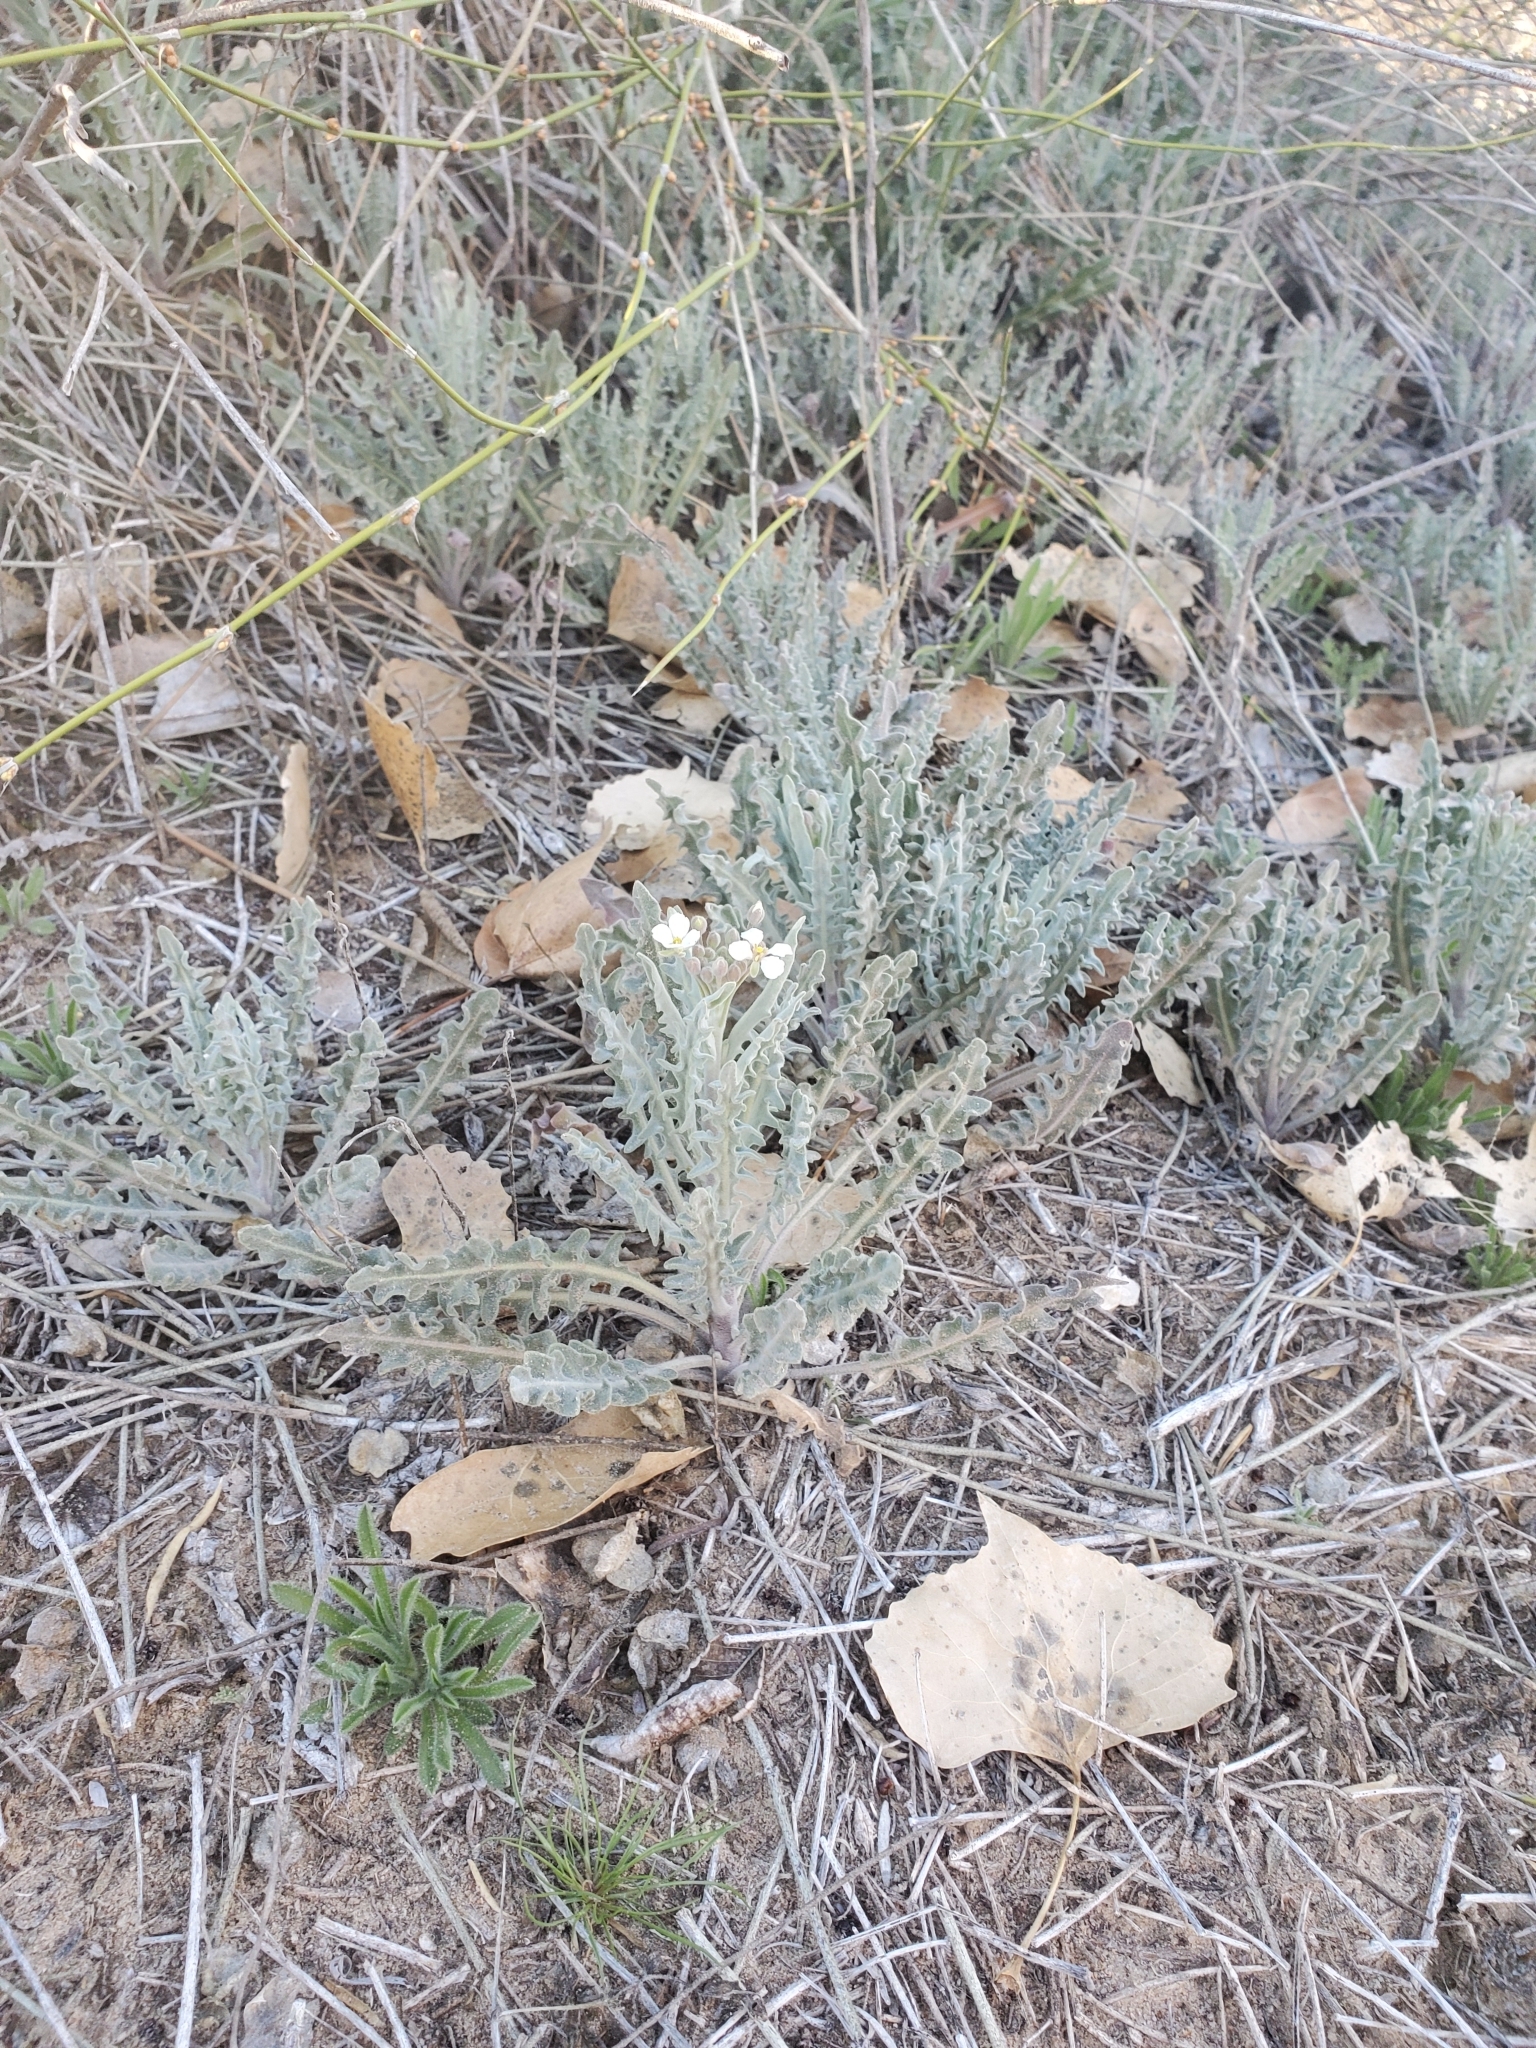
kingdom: Plantae
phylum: Tracheophyta
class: Magnoliopsida
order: Brassicales
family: Brassicaceae
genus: Dimorphocarpa
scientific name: Dimorphocarpa wislizenii
